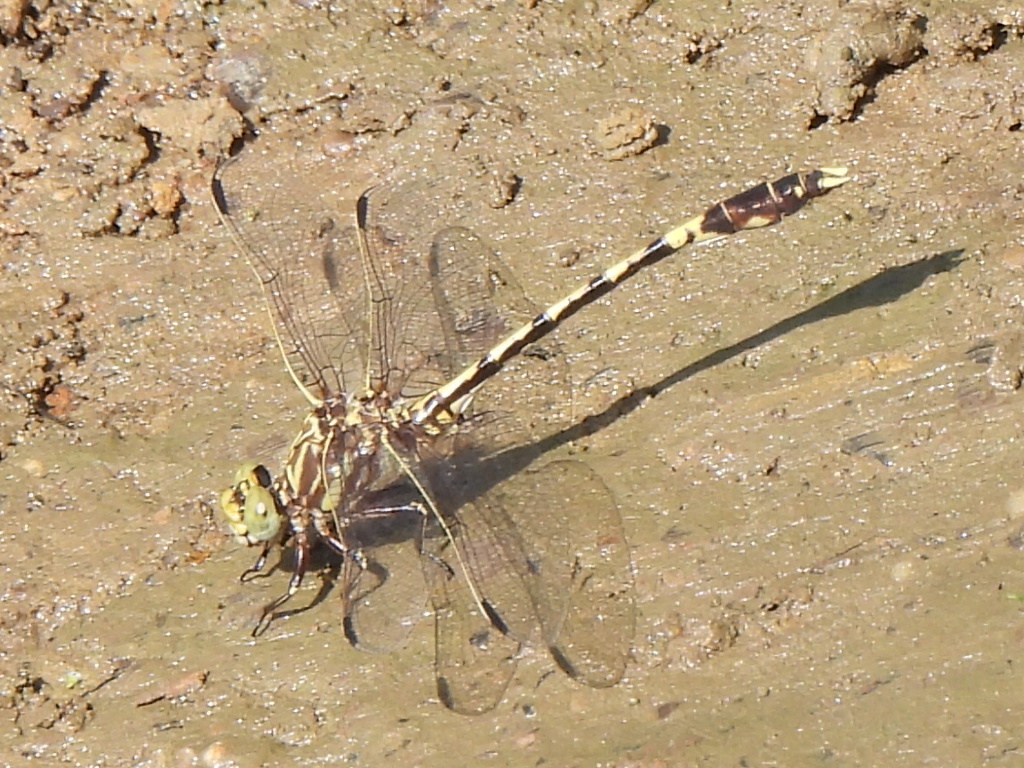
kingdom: Animalia
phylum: Arthropoda
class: Insecta
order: Odonata
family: Gomphidae
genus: Progomphus
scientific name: Progomphus obscurus
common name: Common sanddragon
